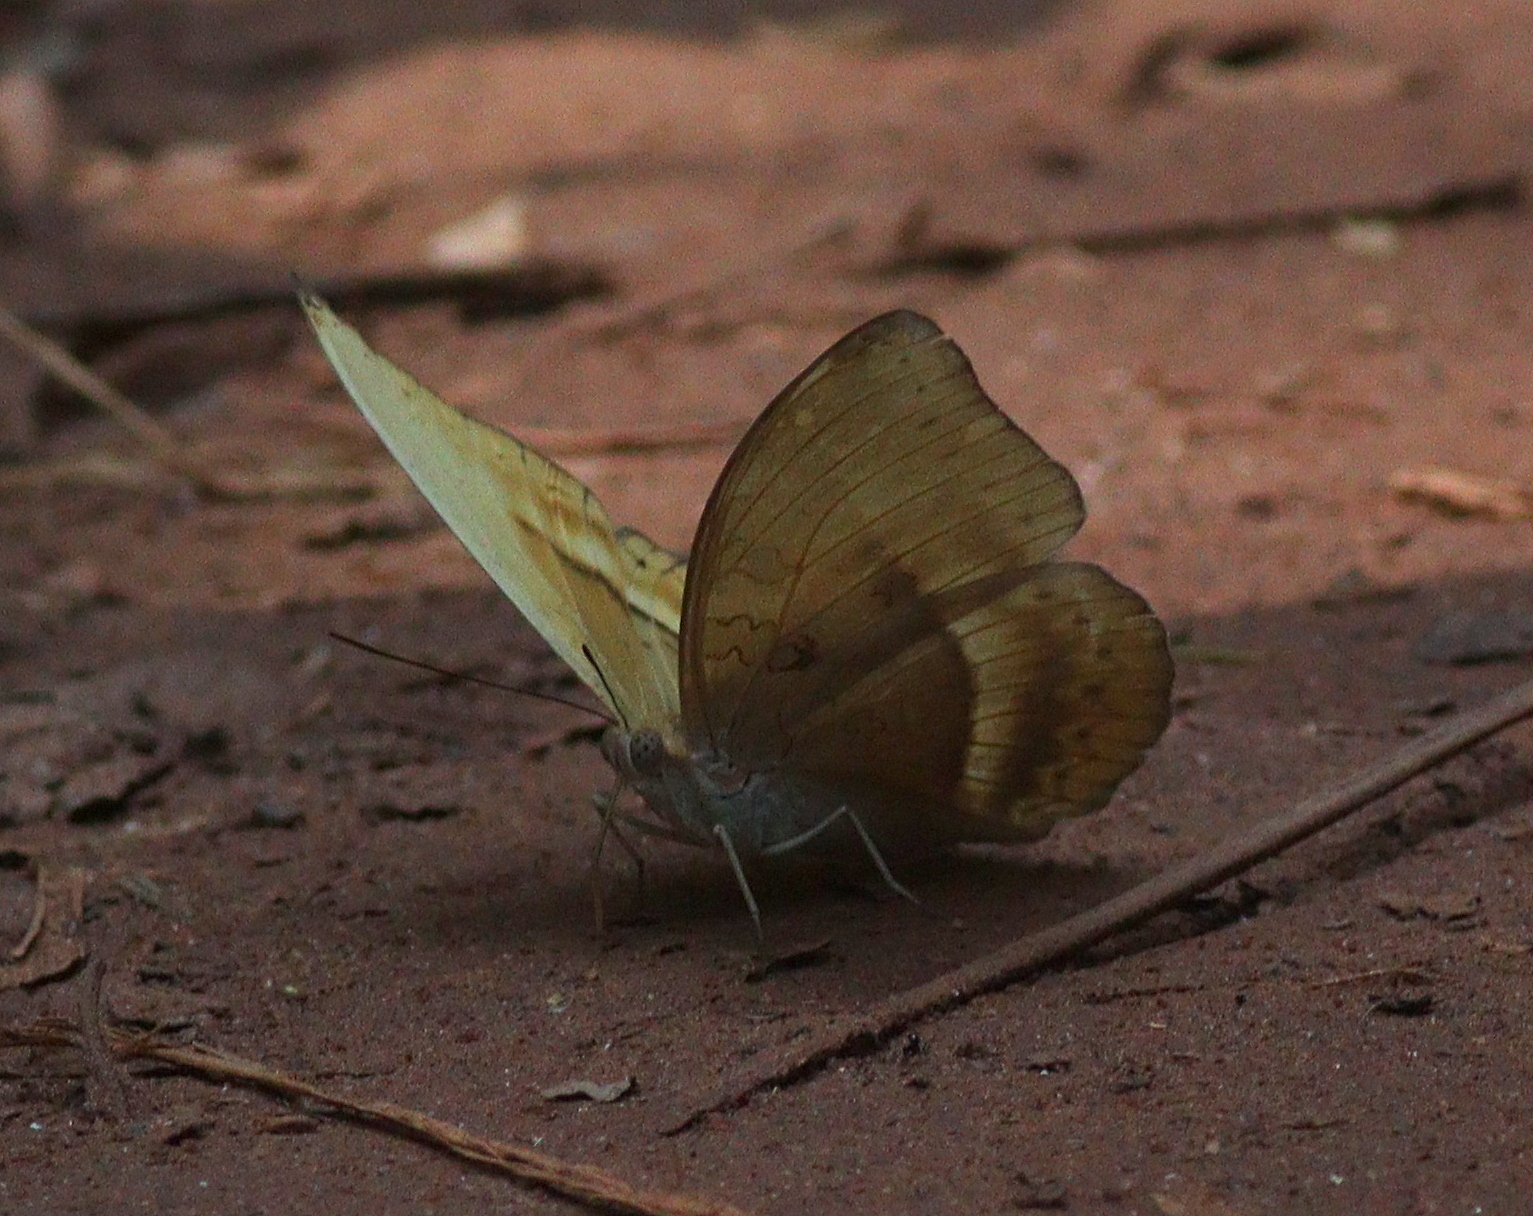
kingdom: Animalia
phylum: Arthropoda
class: Insecta
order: Lepidoptera
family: Nymphalidae
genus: Cymothoe
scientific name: Cymothoe egesta
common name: Common yellow glider
